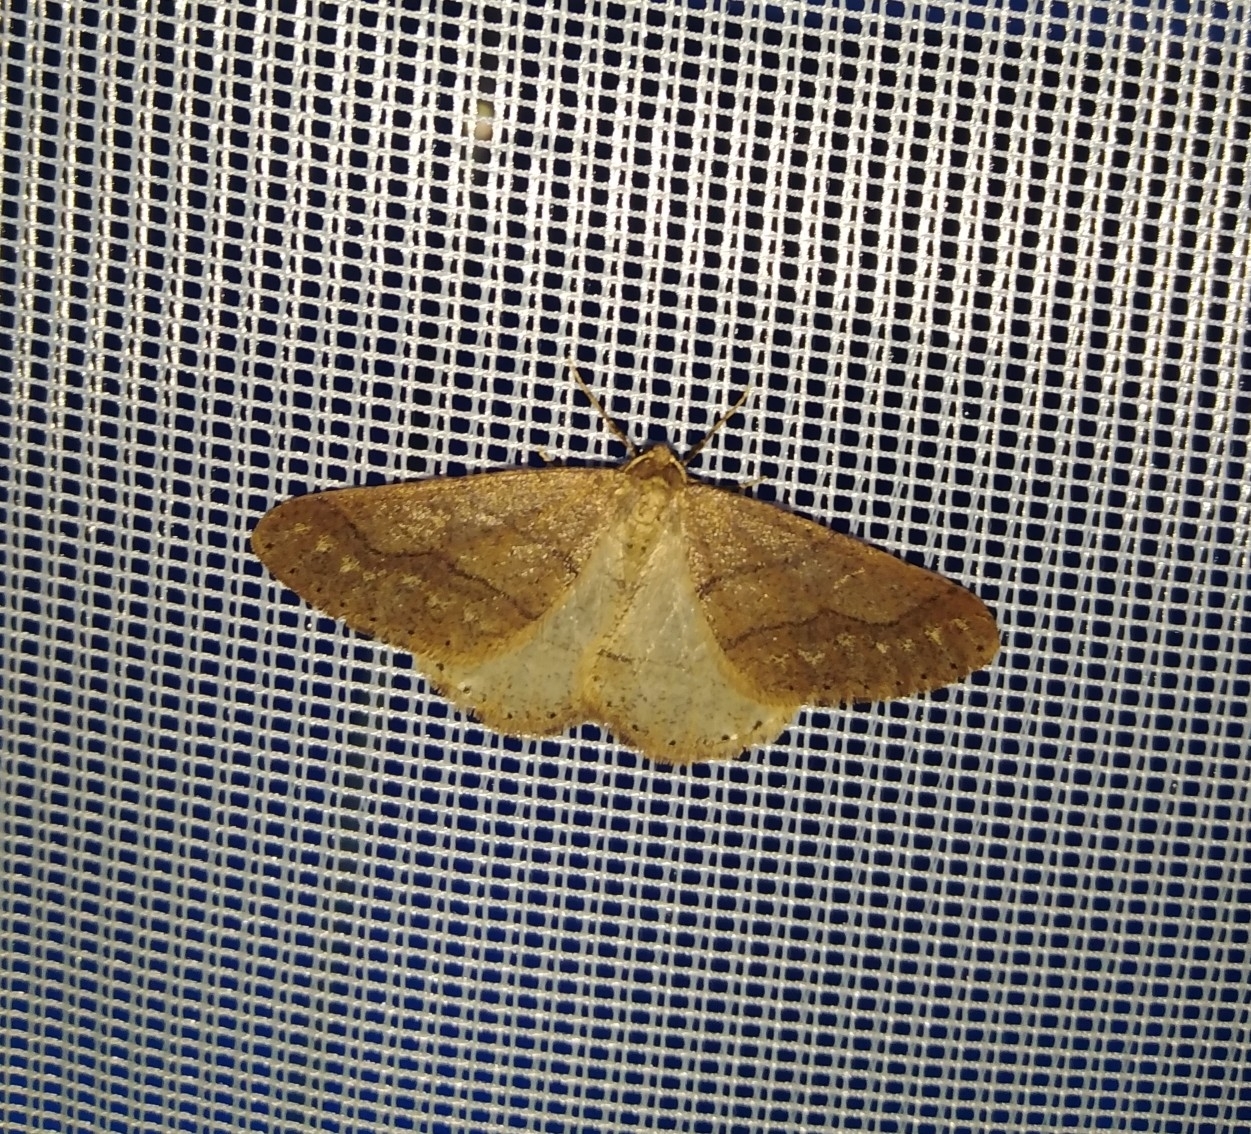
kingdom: Animalia
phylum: Arthropoda
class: Insecta
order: Lepidoptera
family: Geometridae
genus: Agriopis
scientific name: Agriopis marginaria
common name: Dotted border
